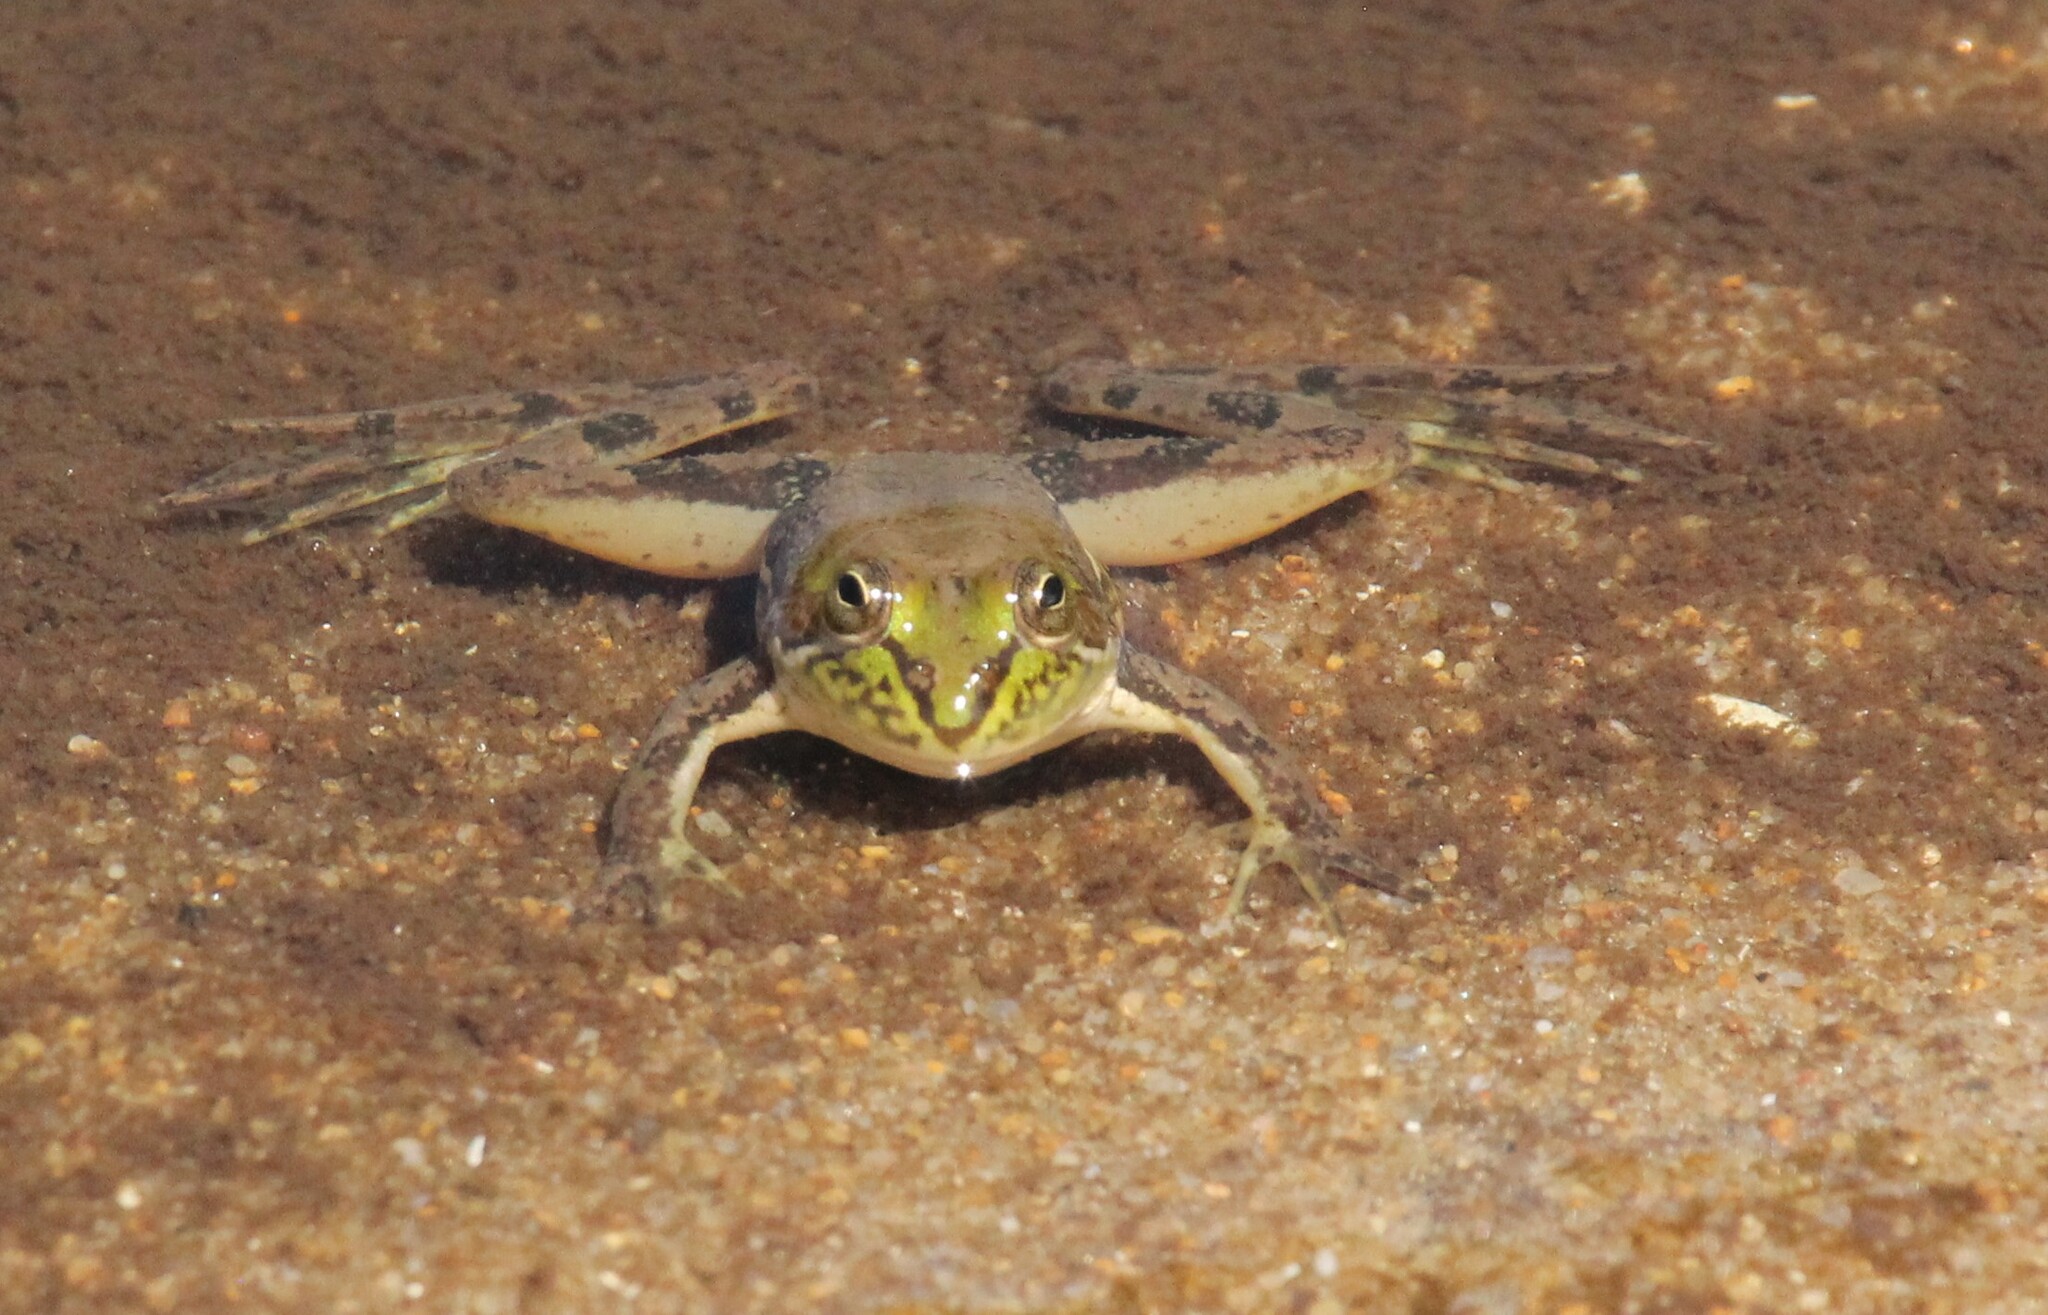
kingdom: Animalia
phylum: Chordata
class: Amphibia
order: Anura
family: Hylidae
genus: Pseudis
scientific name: Pseudis minuta
